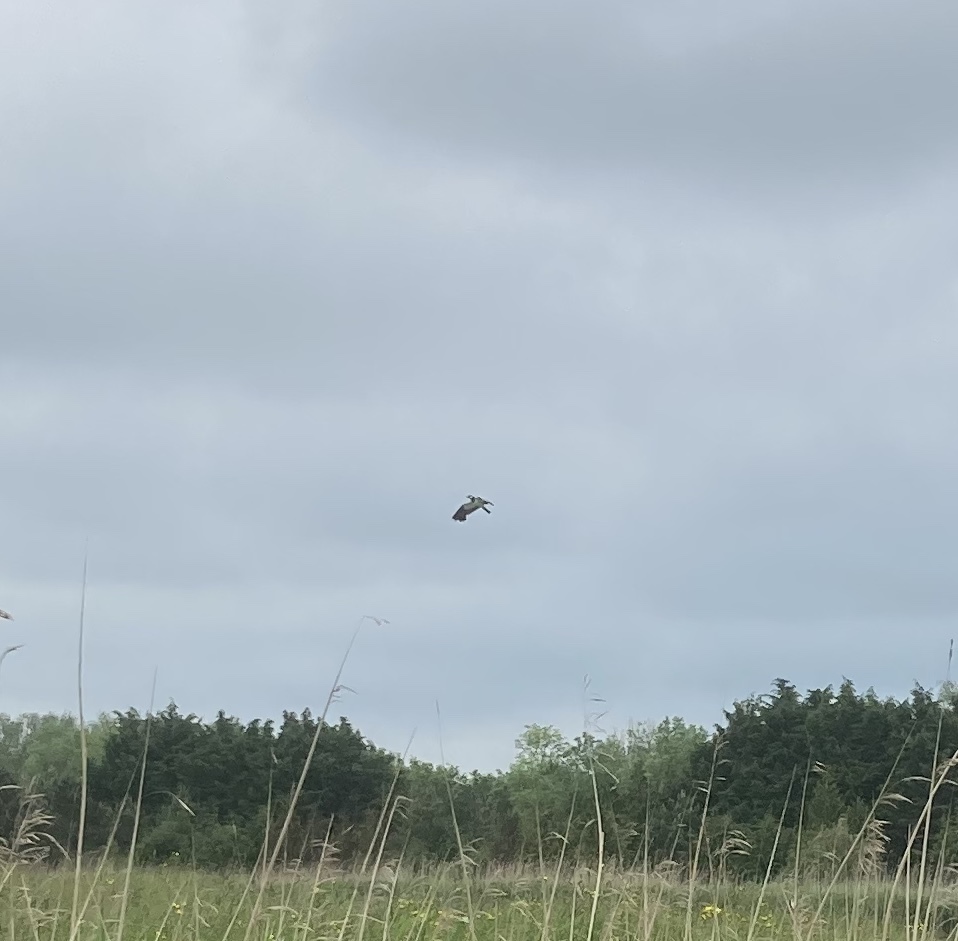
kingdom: Animalia
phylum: Chordata
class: Aves
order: Charadriiformes
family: Charadriidae
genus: Vanellus
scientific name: Vanellus vanellus
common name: Northern lapwing
